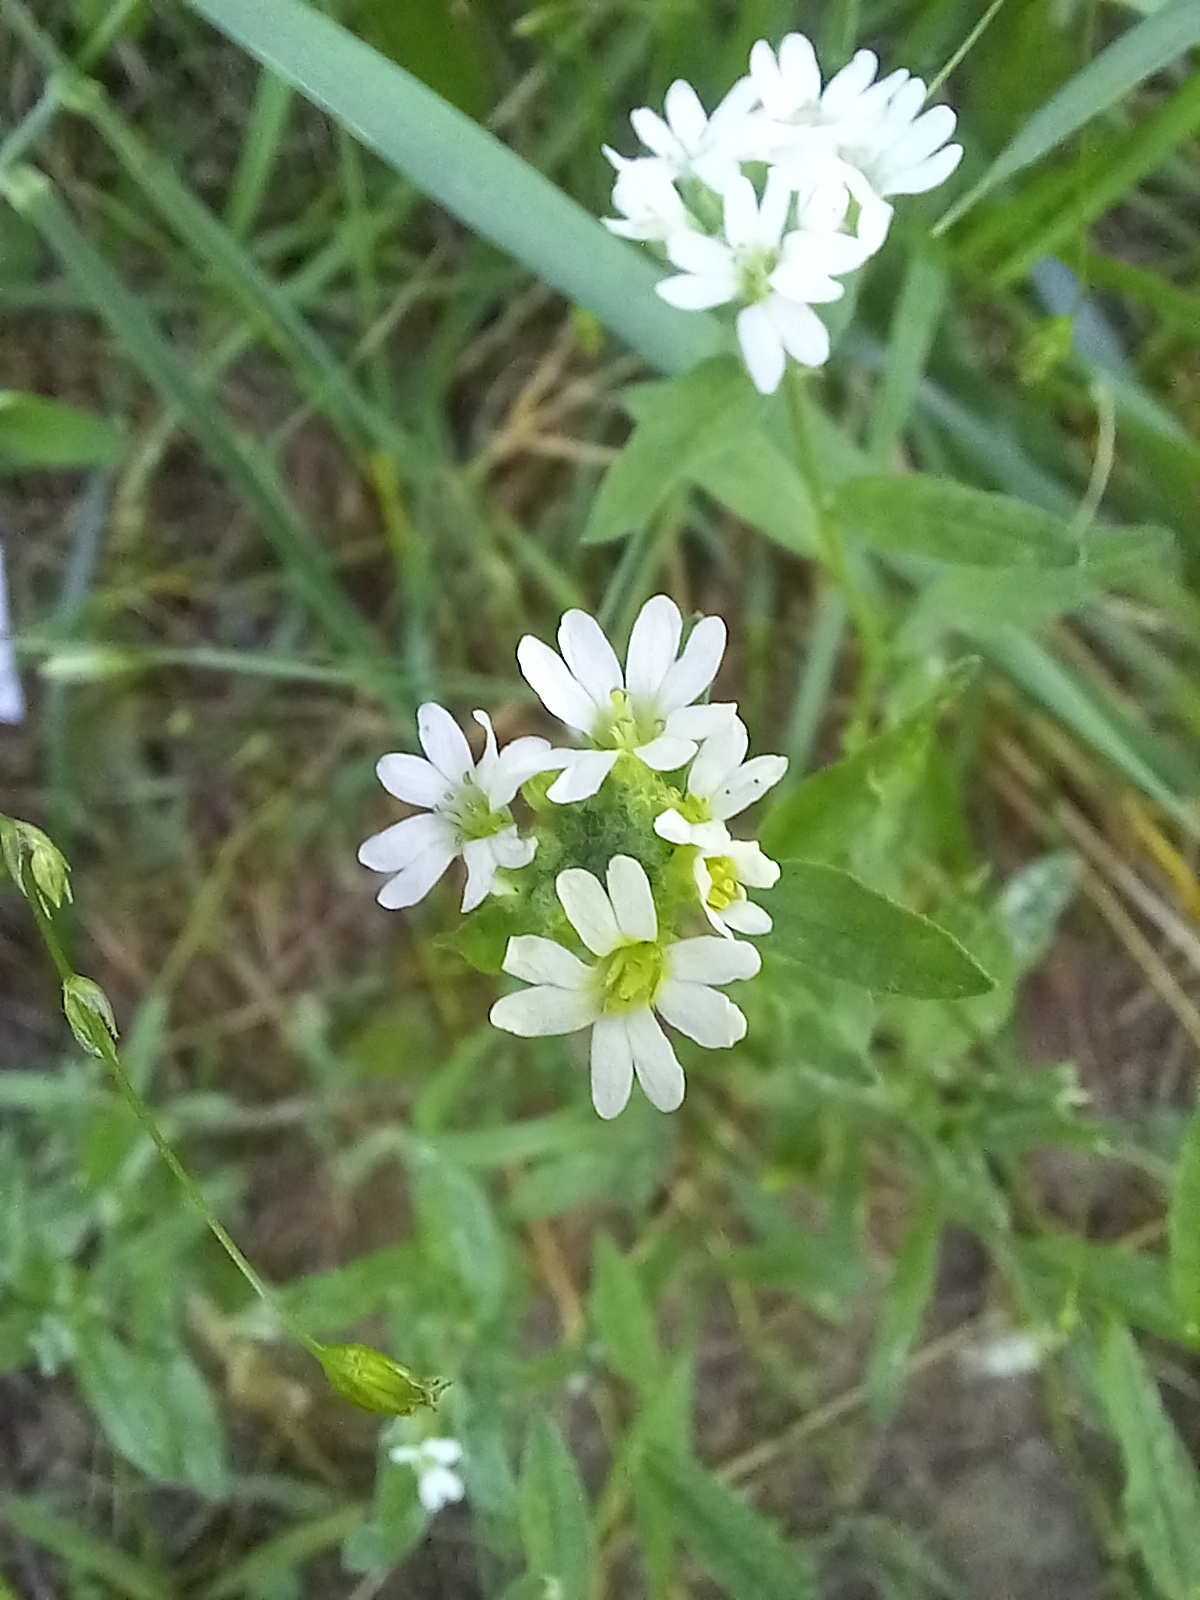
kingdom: Plantae
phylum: Tracheophyta
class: Magnoliopsida
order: Brassicales
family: Brassicaceae
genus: Berteroa
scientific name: Berteroa incana
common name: Hoary alison
